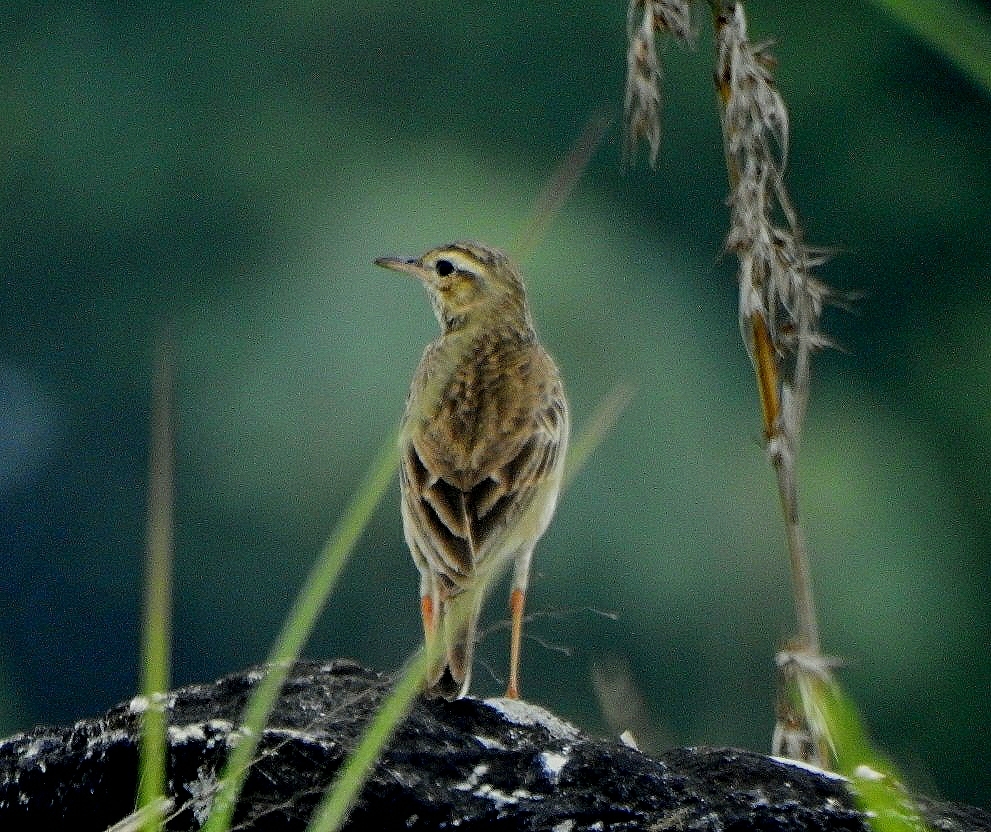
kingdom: Animalia
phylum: Chordata
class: Aves
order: Passeriformes
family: Motacillidae
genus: Anthus
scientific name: Anthus rufulus
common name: Paddyfield pipit
